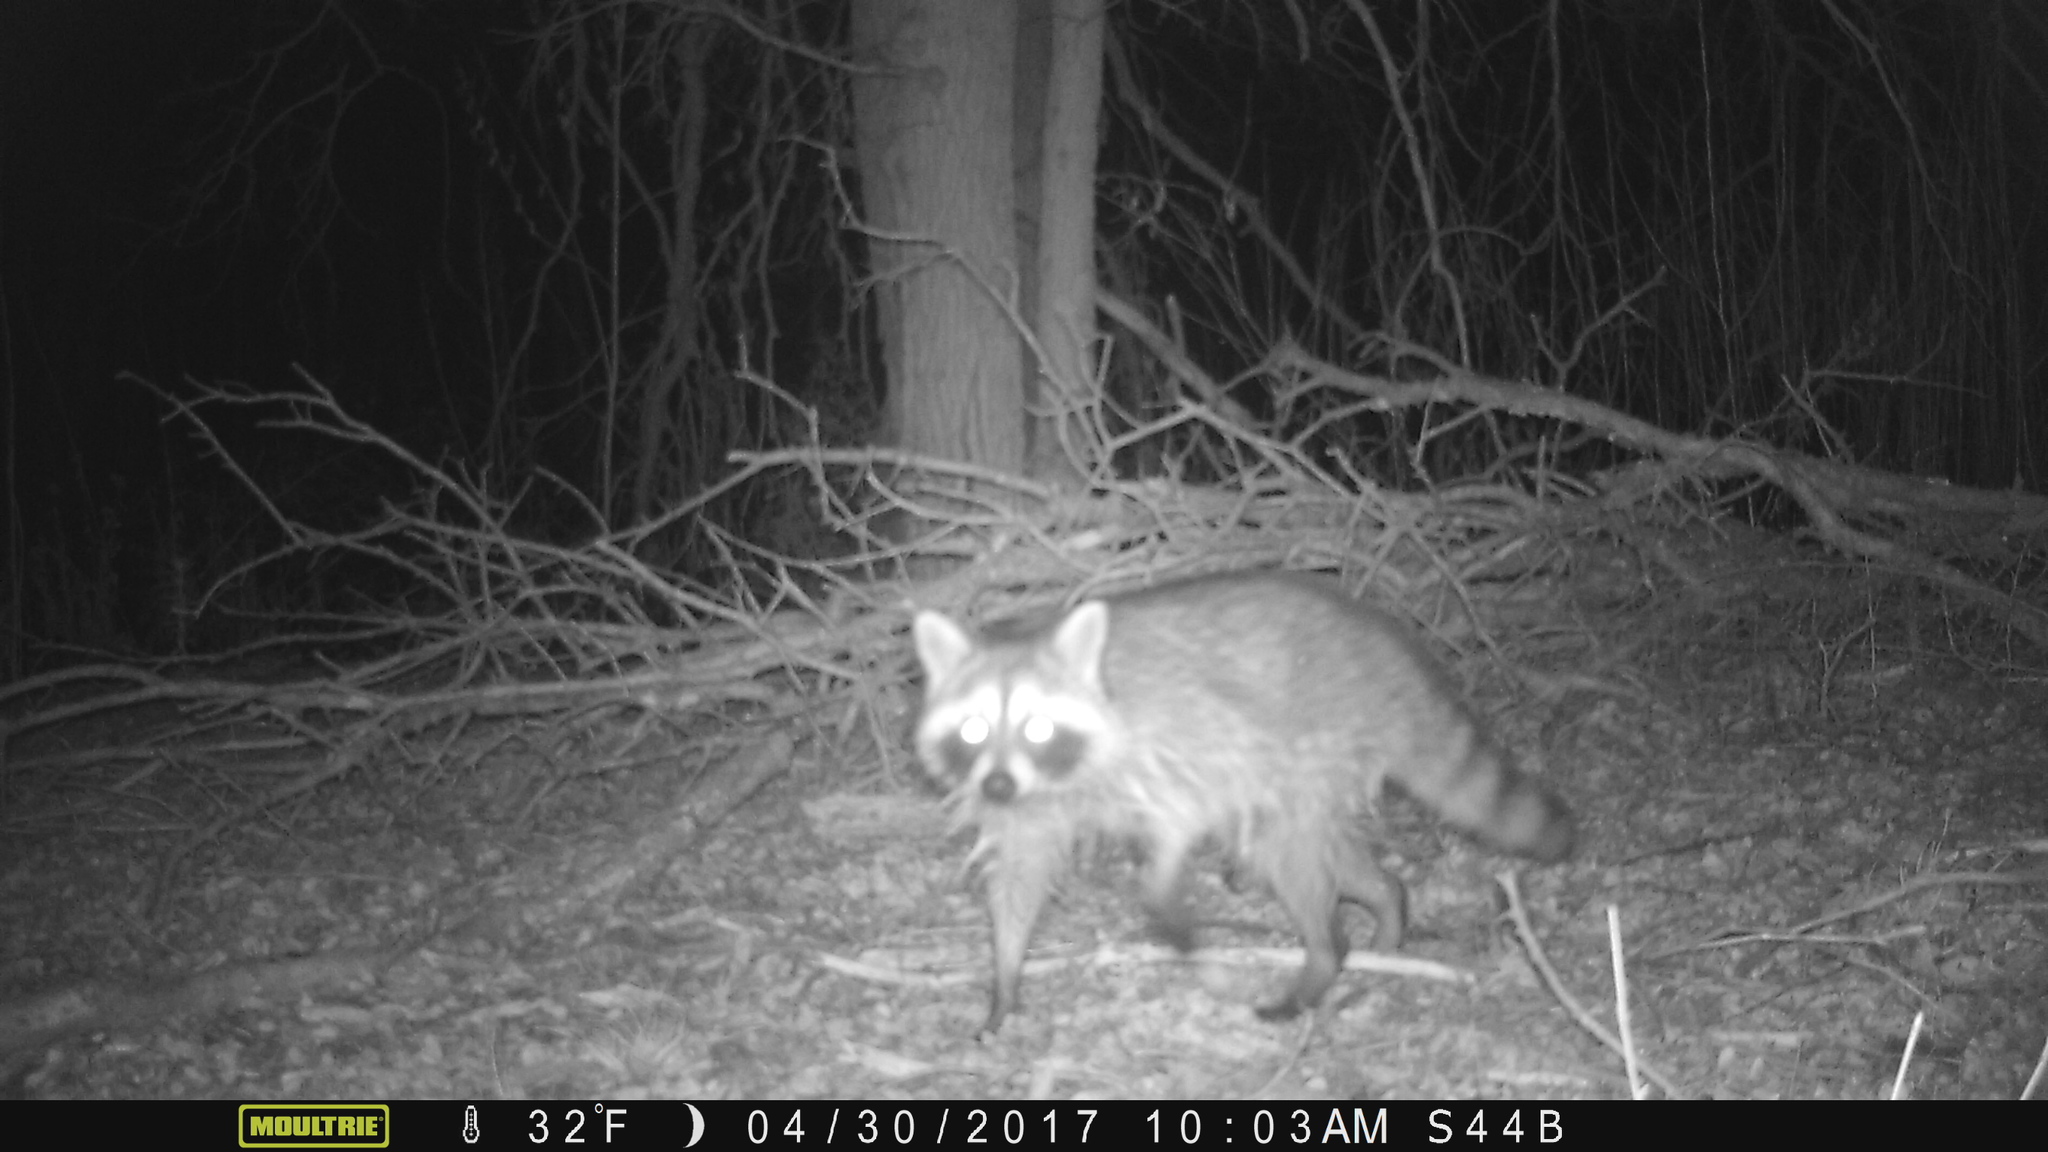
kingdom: Animalia
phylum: Chordata
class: Mammalia
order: Carnivora
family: Procyonidae
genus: Procyon
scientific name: Procyon lotor
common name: Raccoon
